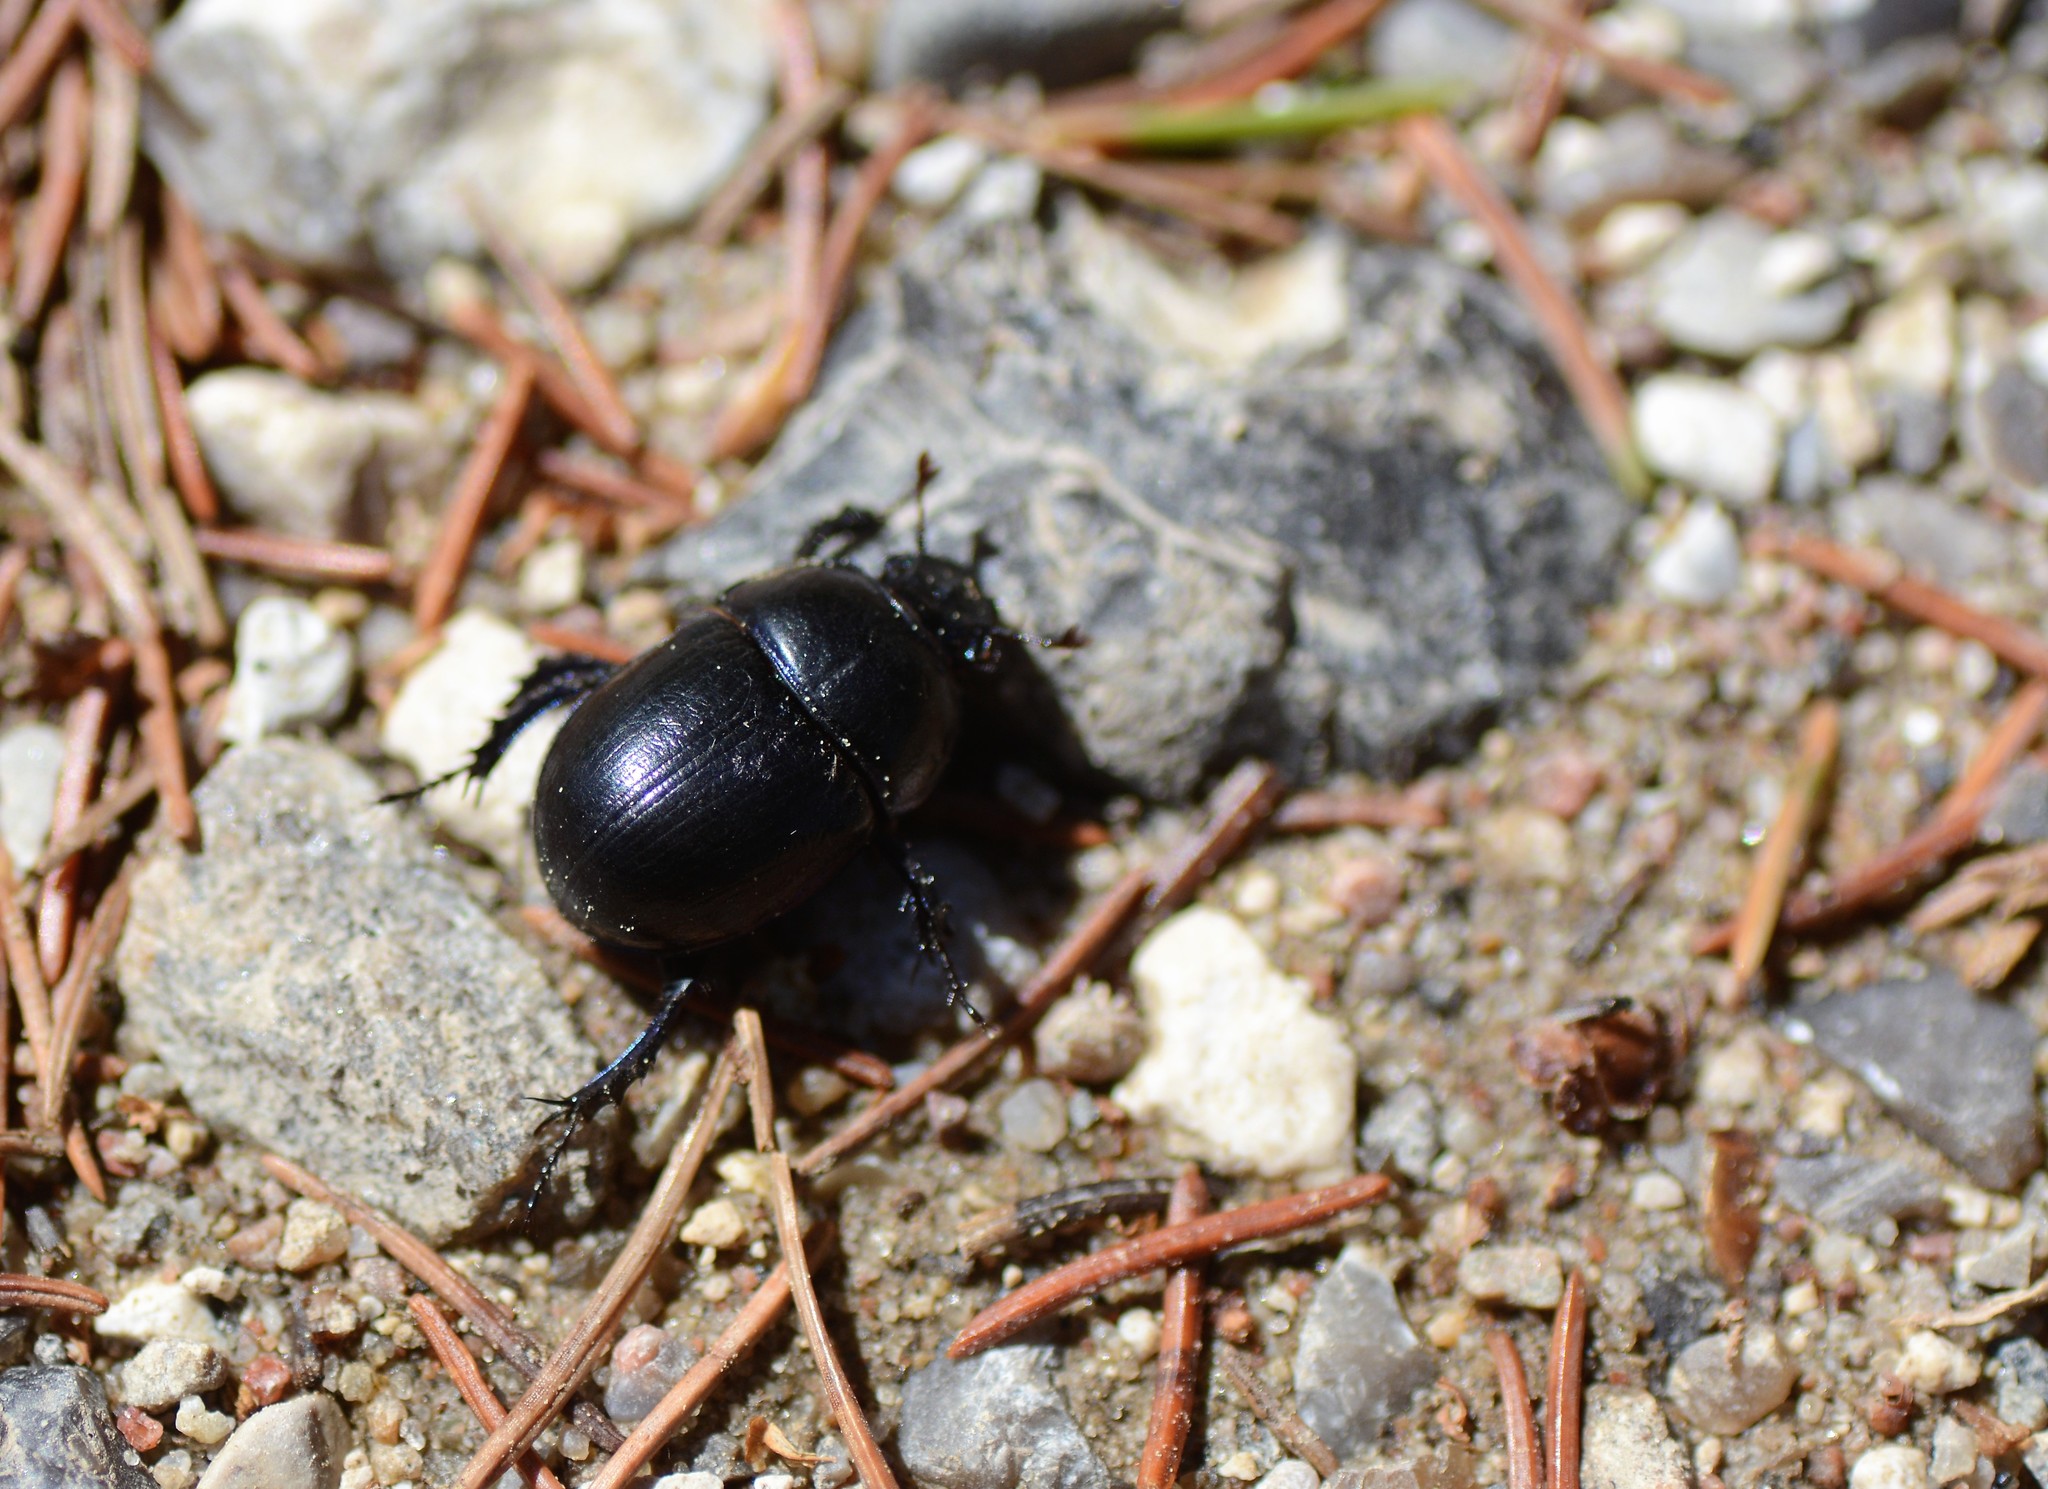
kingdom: Animalia
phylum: Arthropoda
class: Insecta
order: Coleoptera
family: Geotrupidae
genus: Anoplotrupes
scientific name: Anoplotrupes stercorosus
